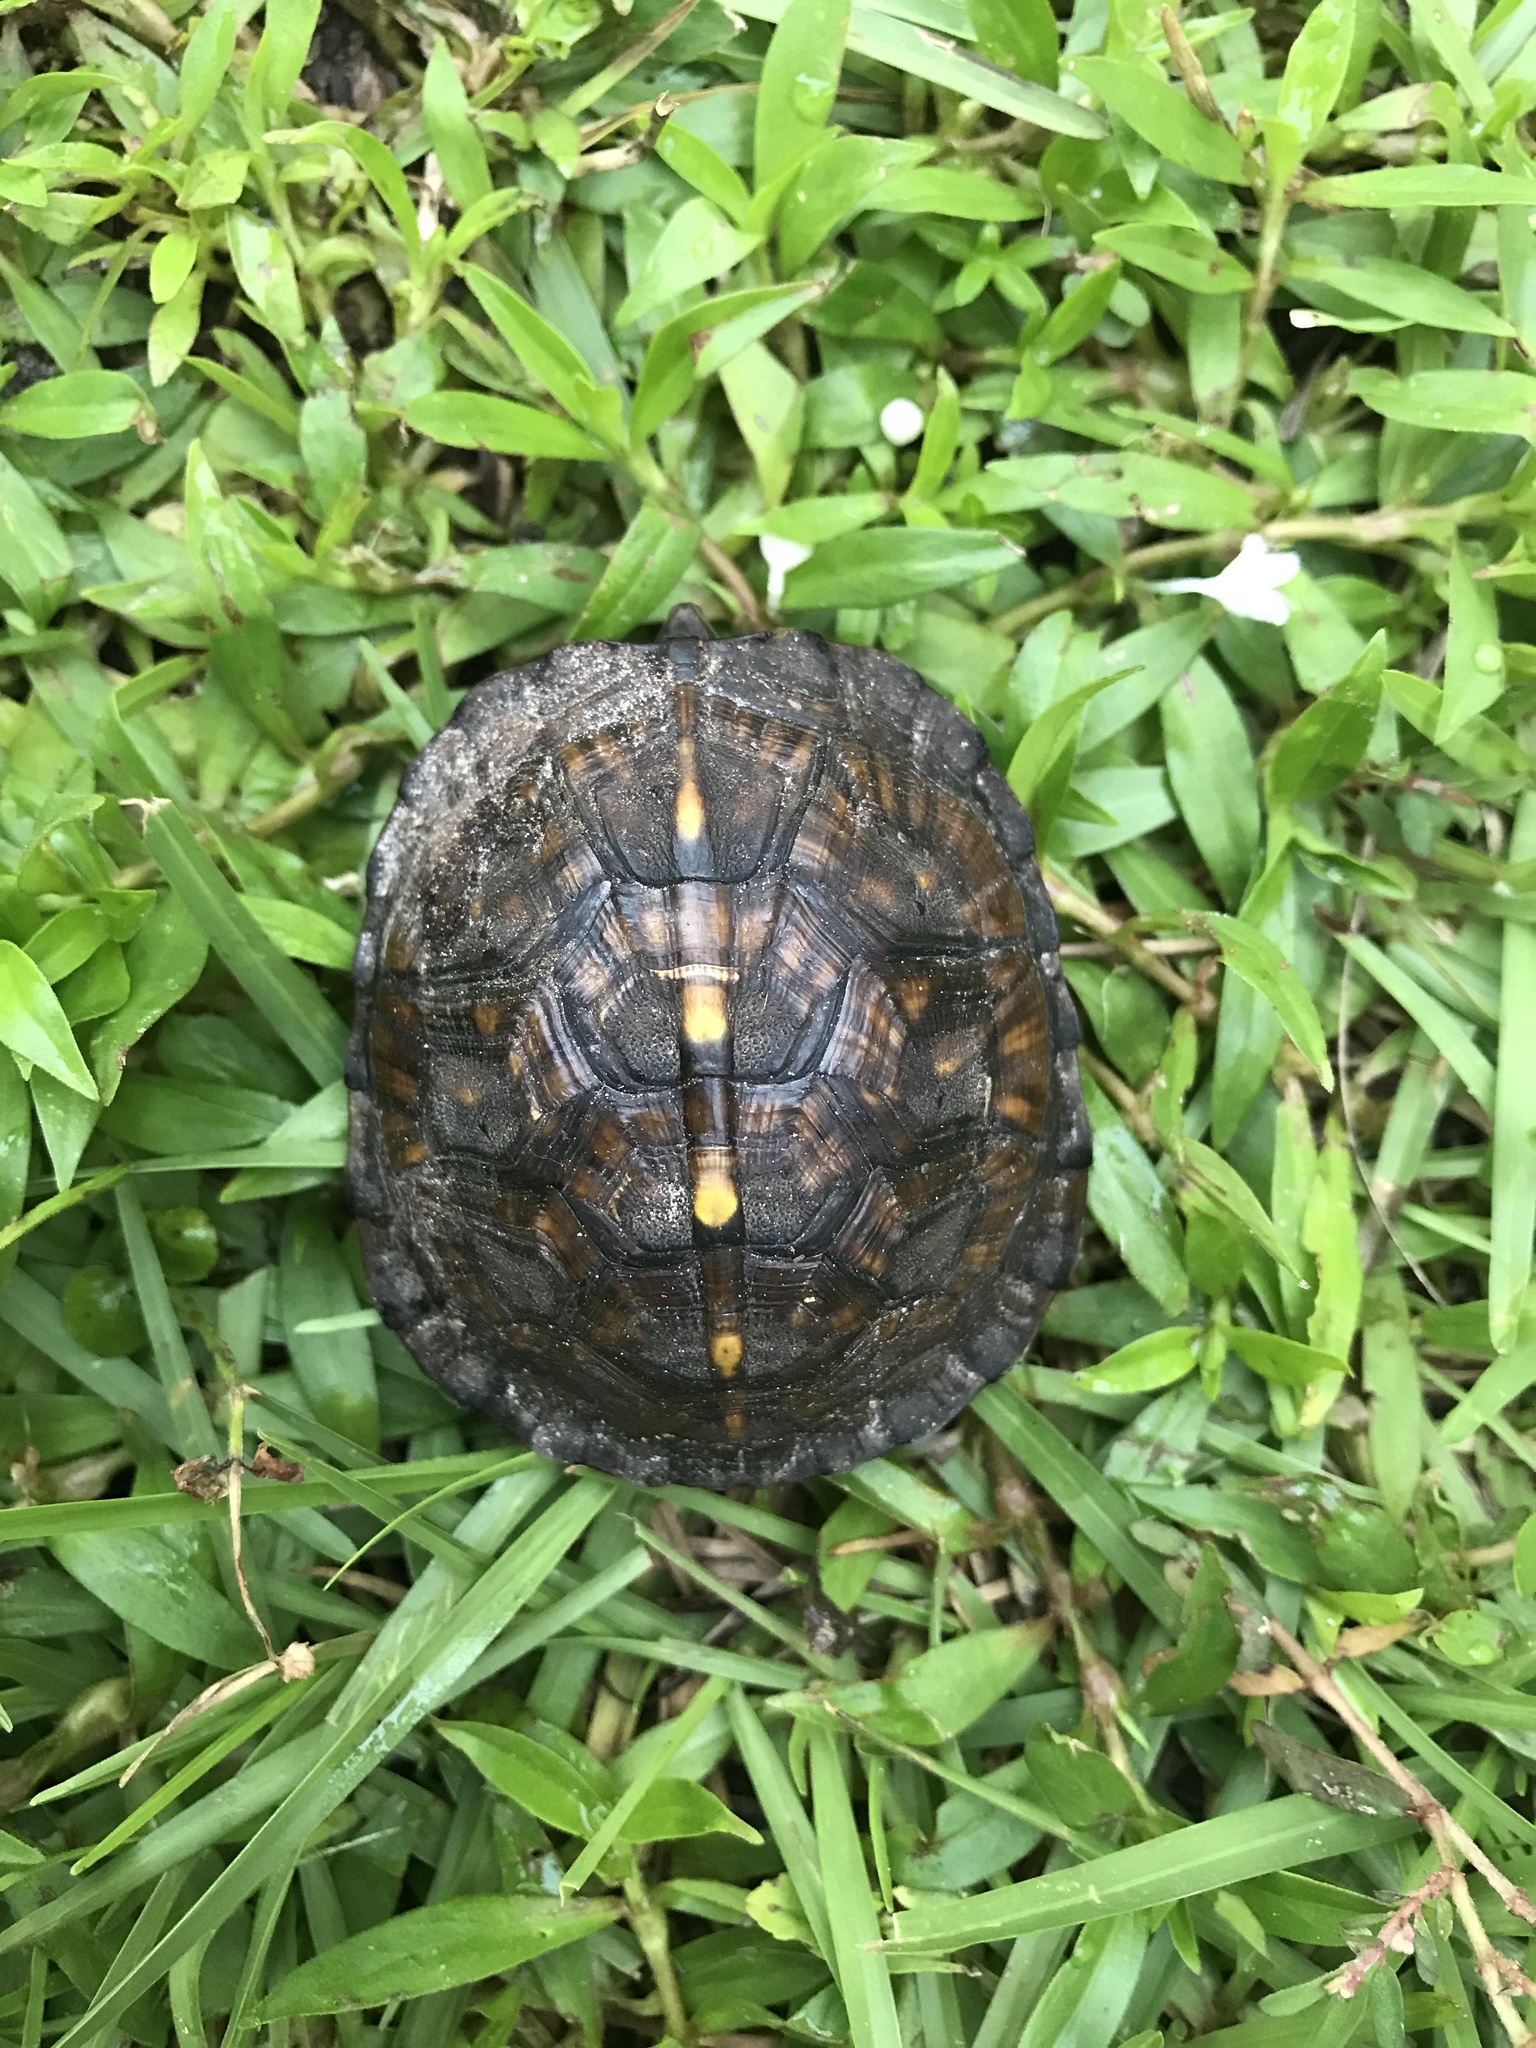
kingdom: Animalia
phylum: Chordata
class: Testudines
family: Emydidae
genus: Terrapene
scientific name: Terrapene carolina
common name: Common box turtle
